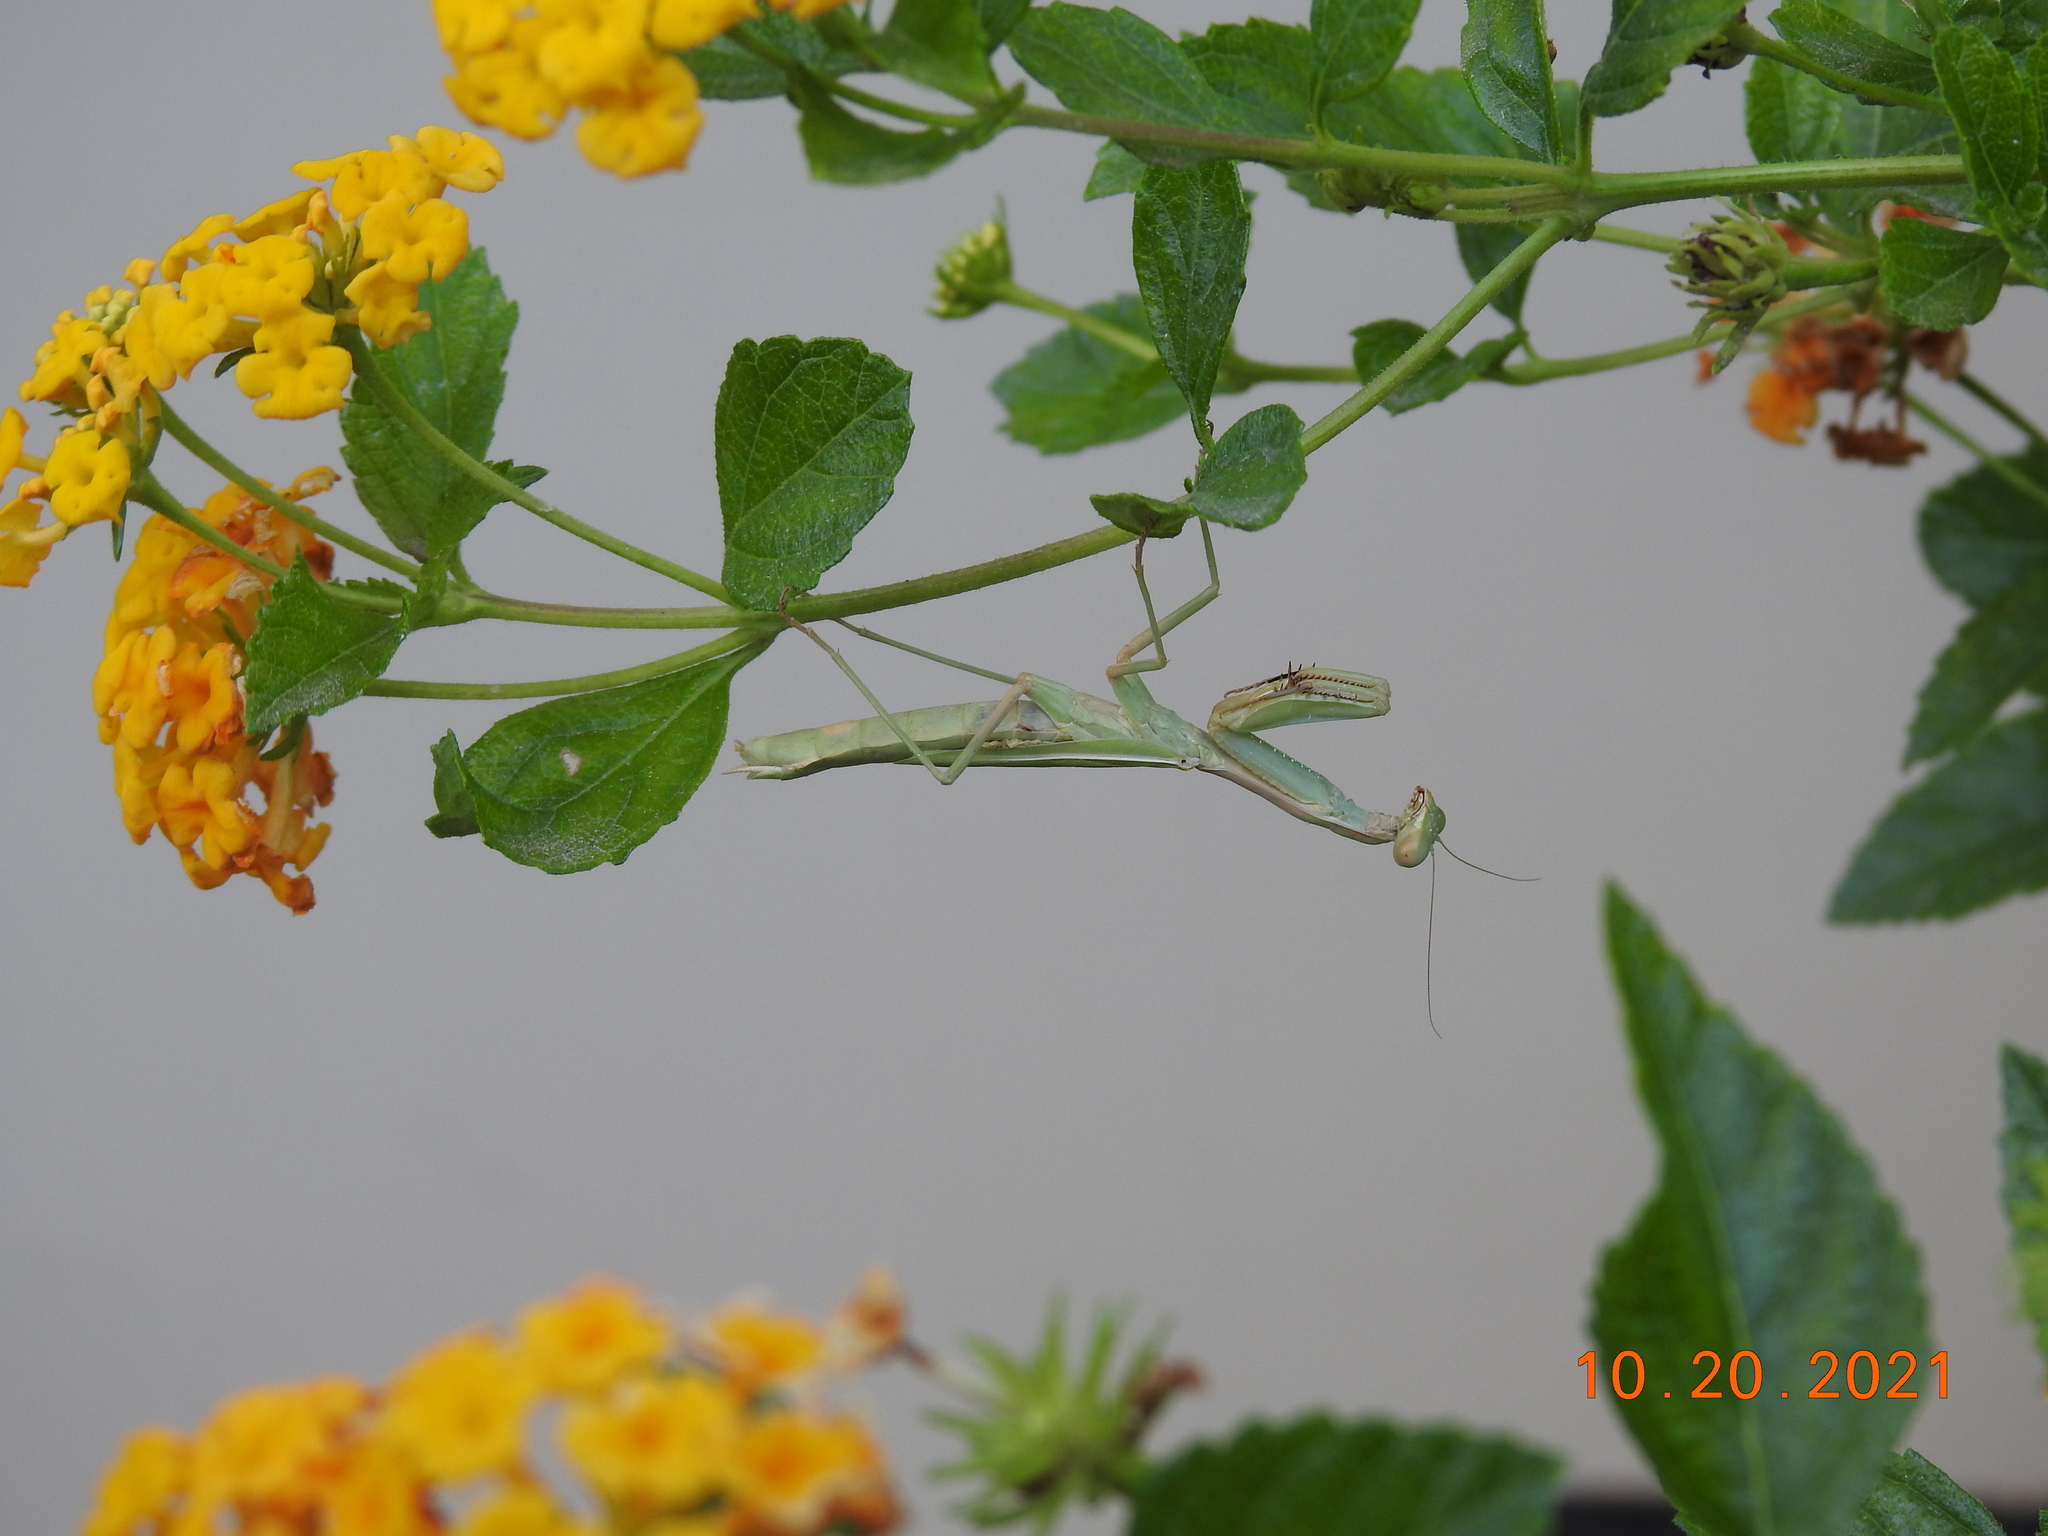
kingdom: Animalia
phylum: Arthropoda
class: Insecta
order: Mantodea
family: Eremiaphilidae
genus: Iris
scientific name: Iris oratoria
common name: Mediterranean mantis
